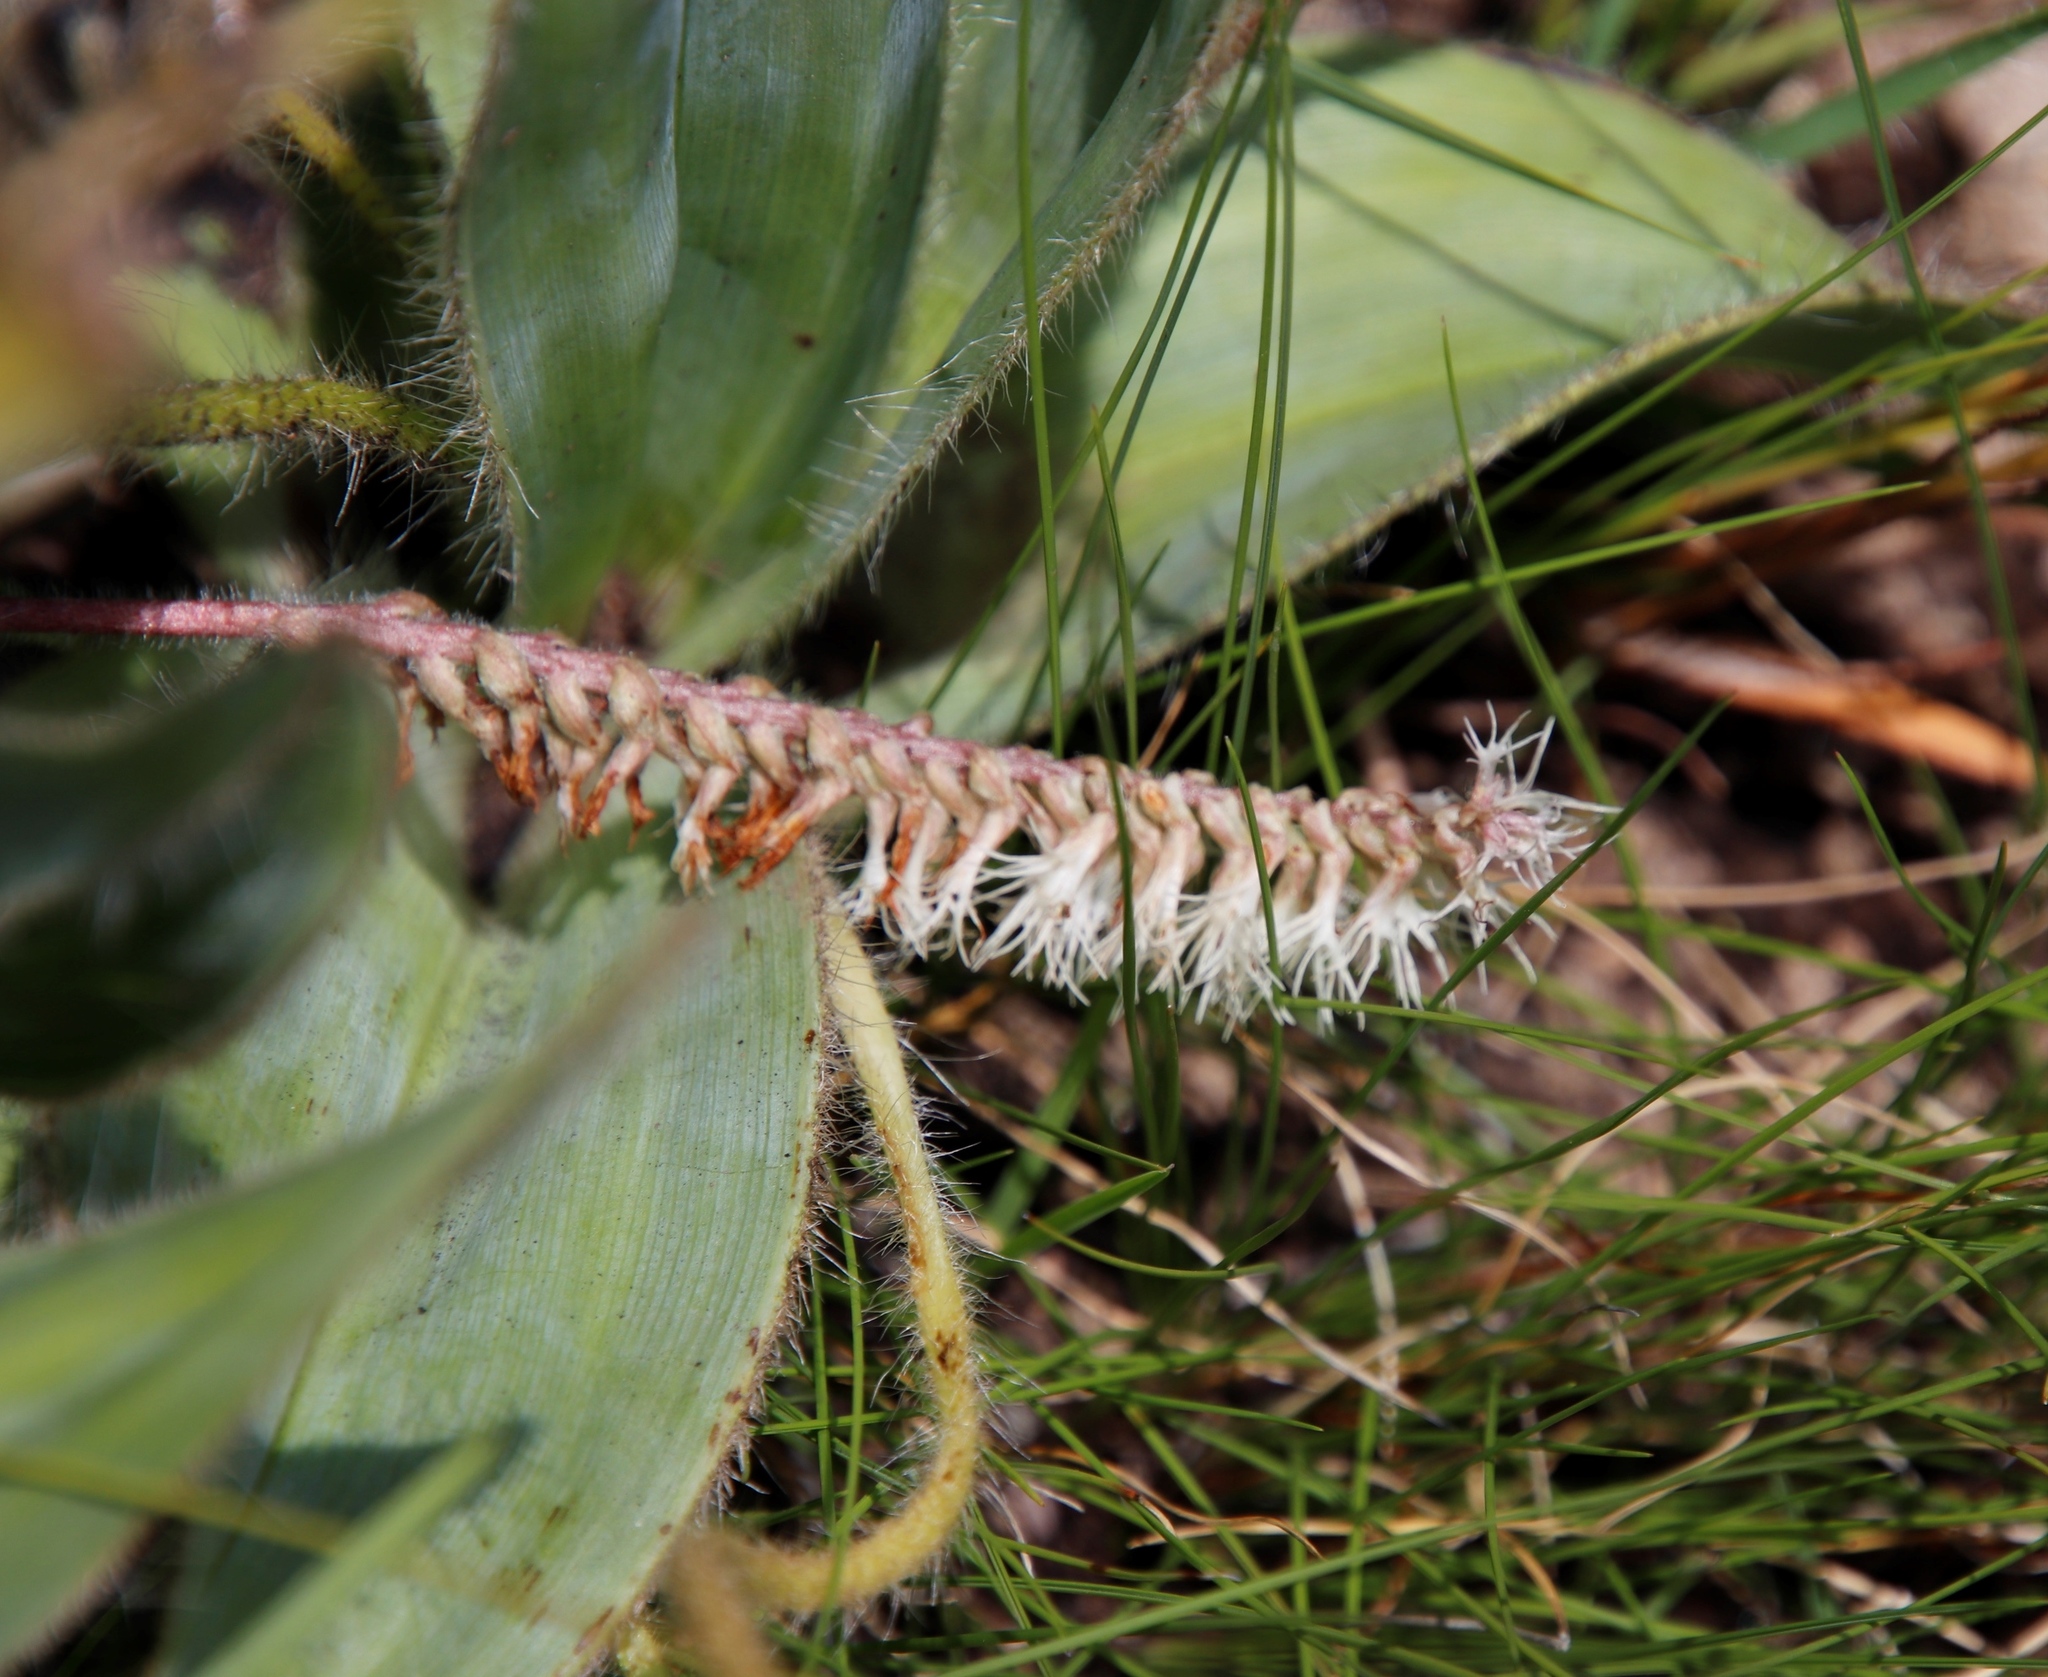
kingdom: Plantae
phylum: Tracheophyta
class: Liliopsida
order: Asparagales
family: Orchidaceae
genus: Holothrix
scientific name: Holothrix scopularia
